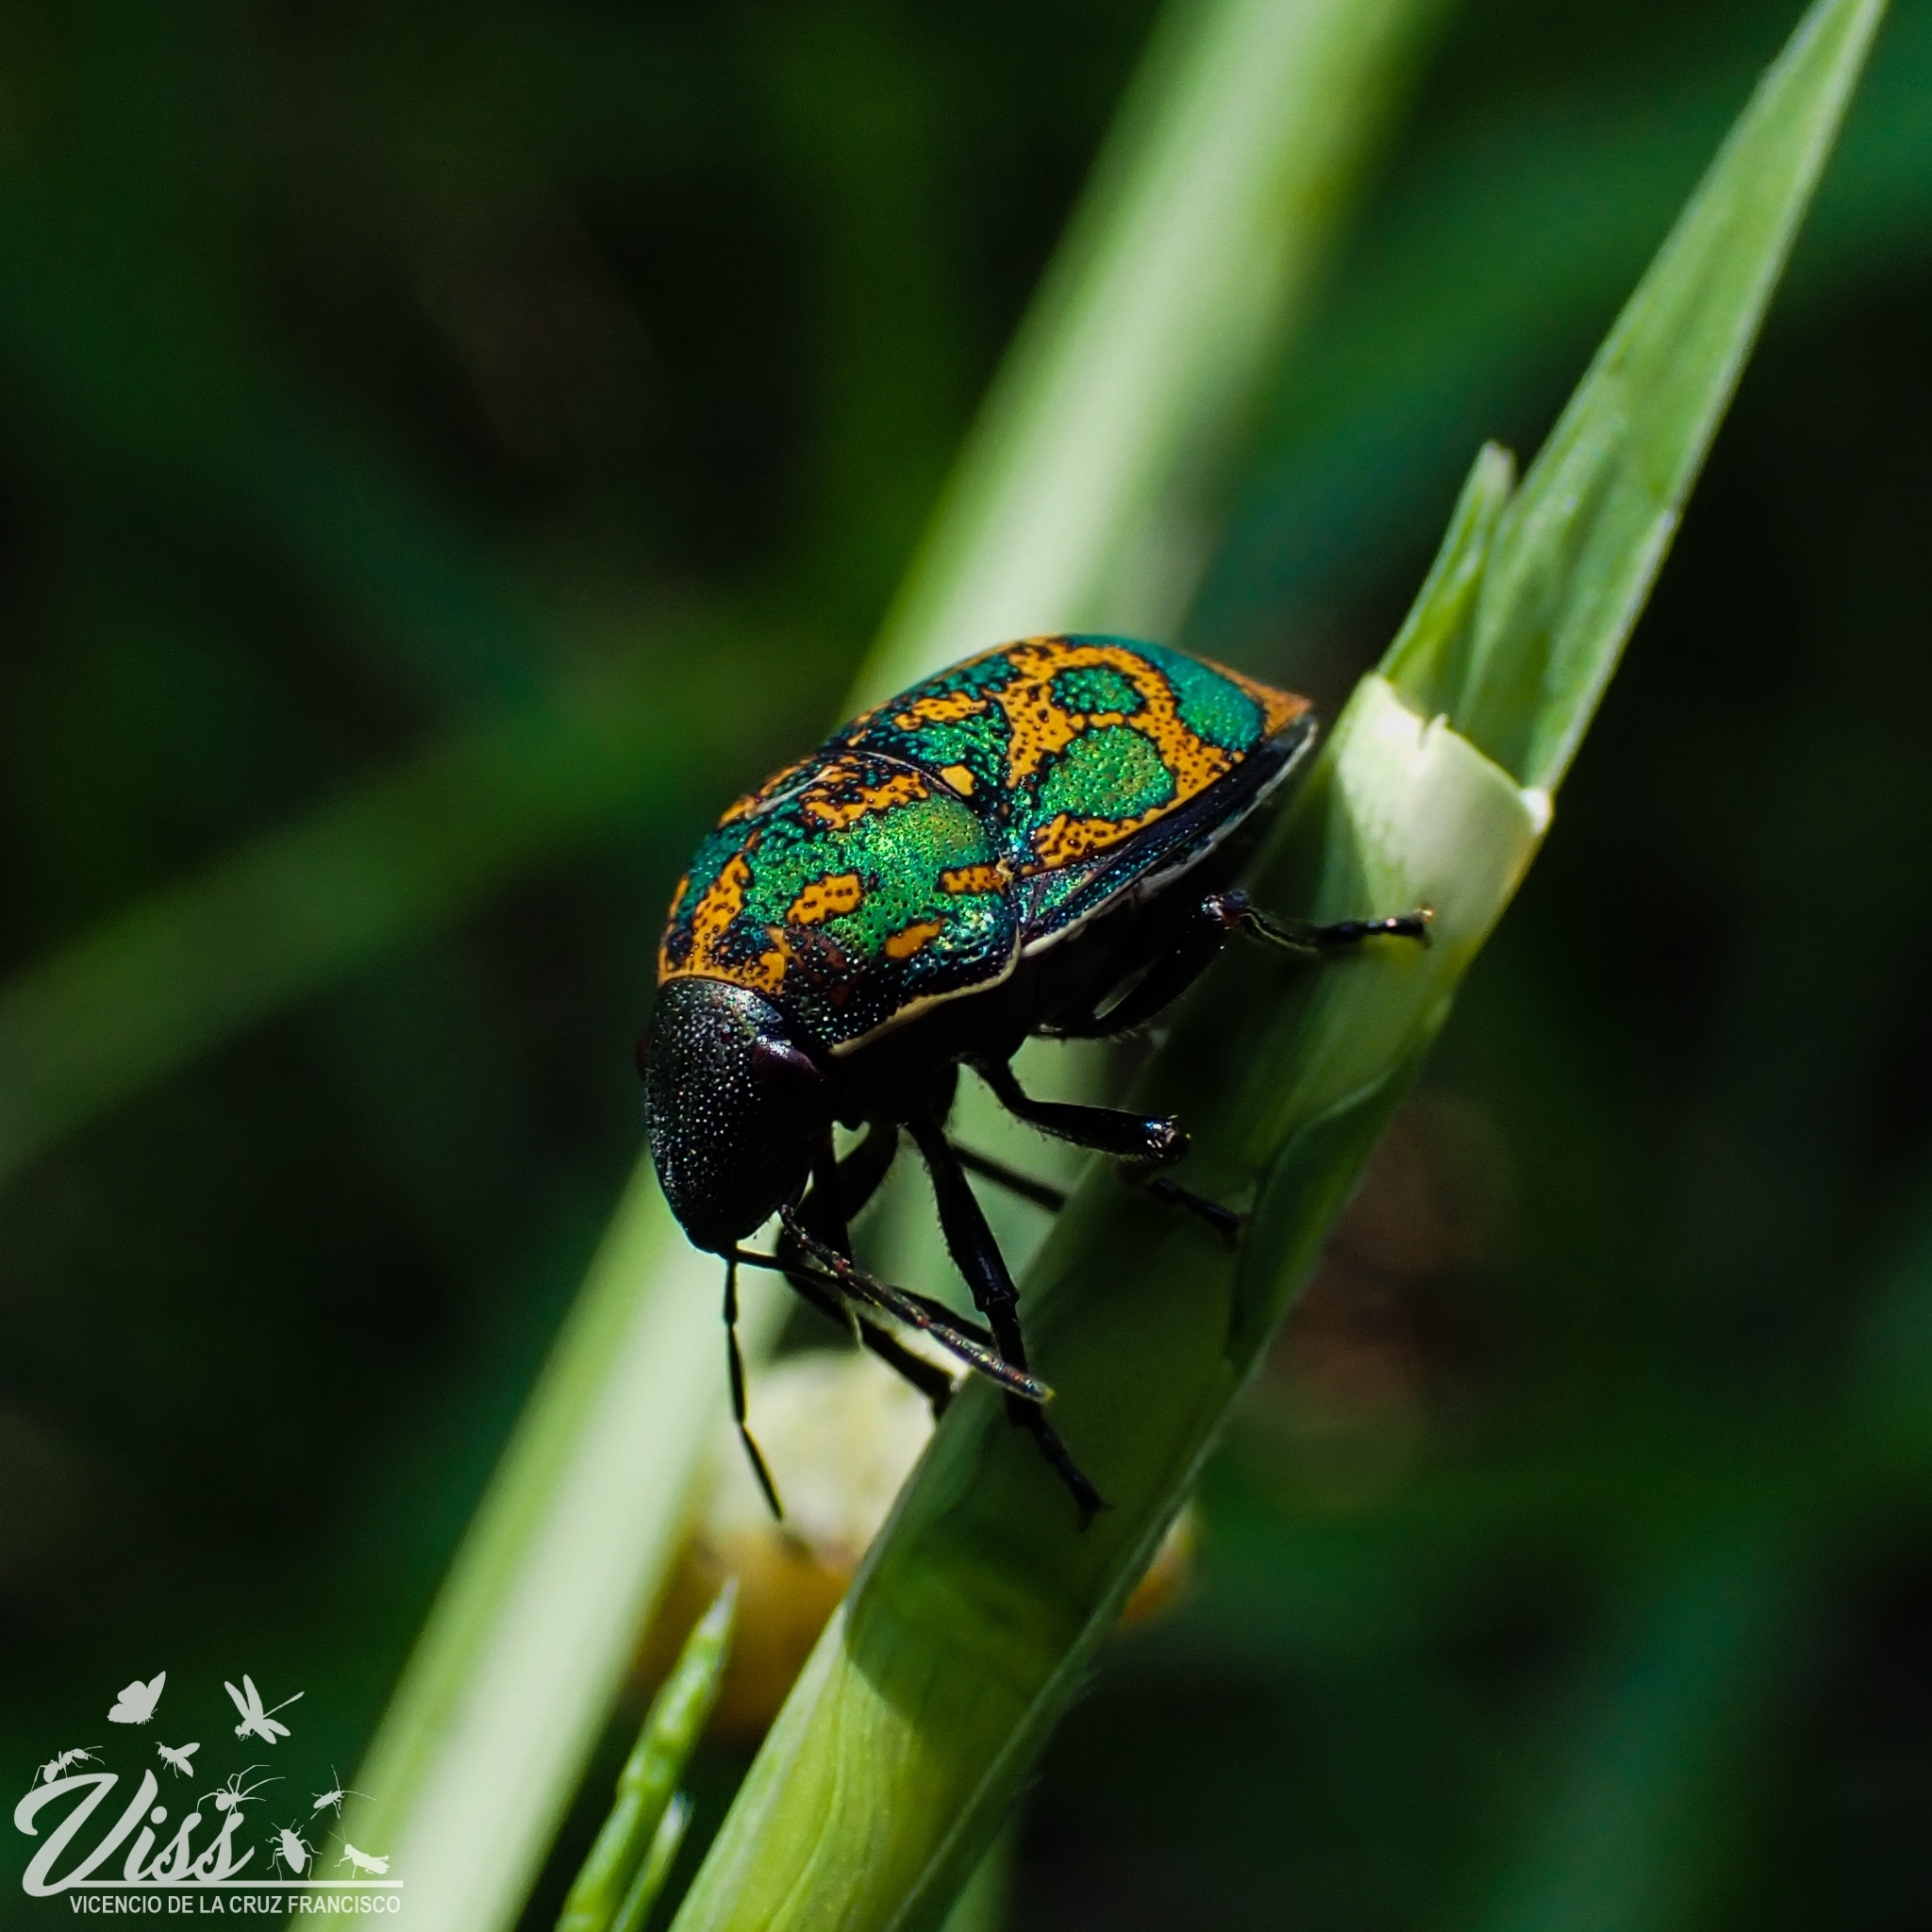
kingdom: Animalia
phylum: Arthropoda
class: Insecta
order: Hemiptera
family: Scutelleridae
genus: Orsilochides
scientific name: Orsilochides variabilis
